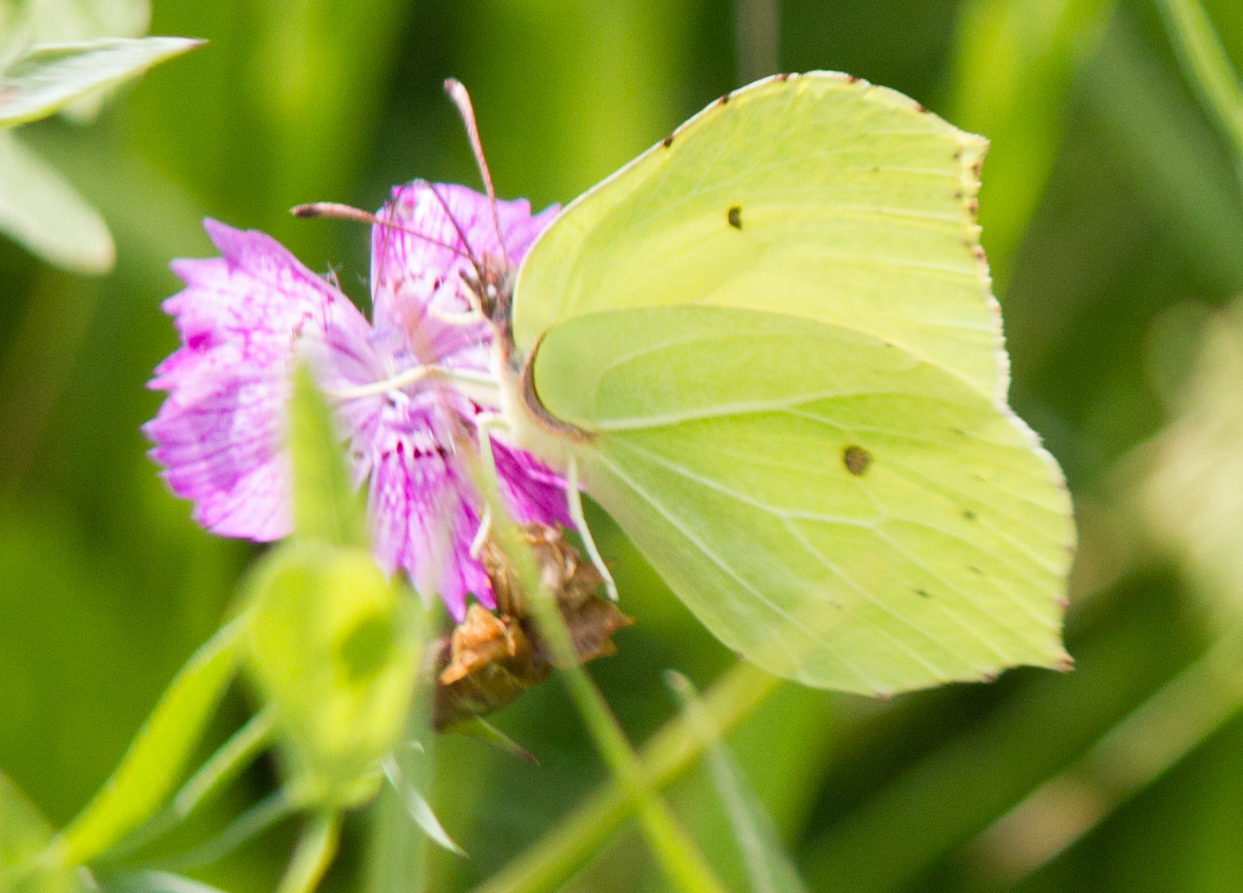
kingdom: Animalia
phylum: Arthropoda
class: Insecta
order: Lepidoptera
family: Pieridae
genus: Gonepteryx
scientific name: Gonepteryx rhamni
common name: Brimstone
